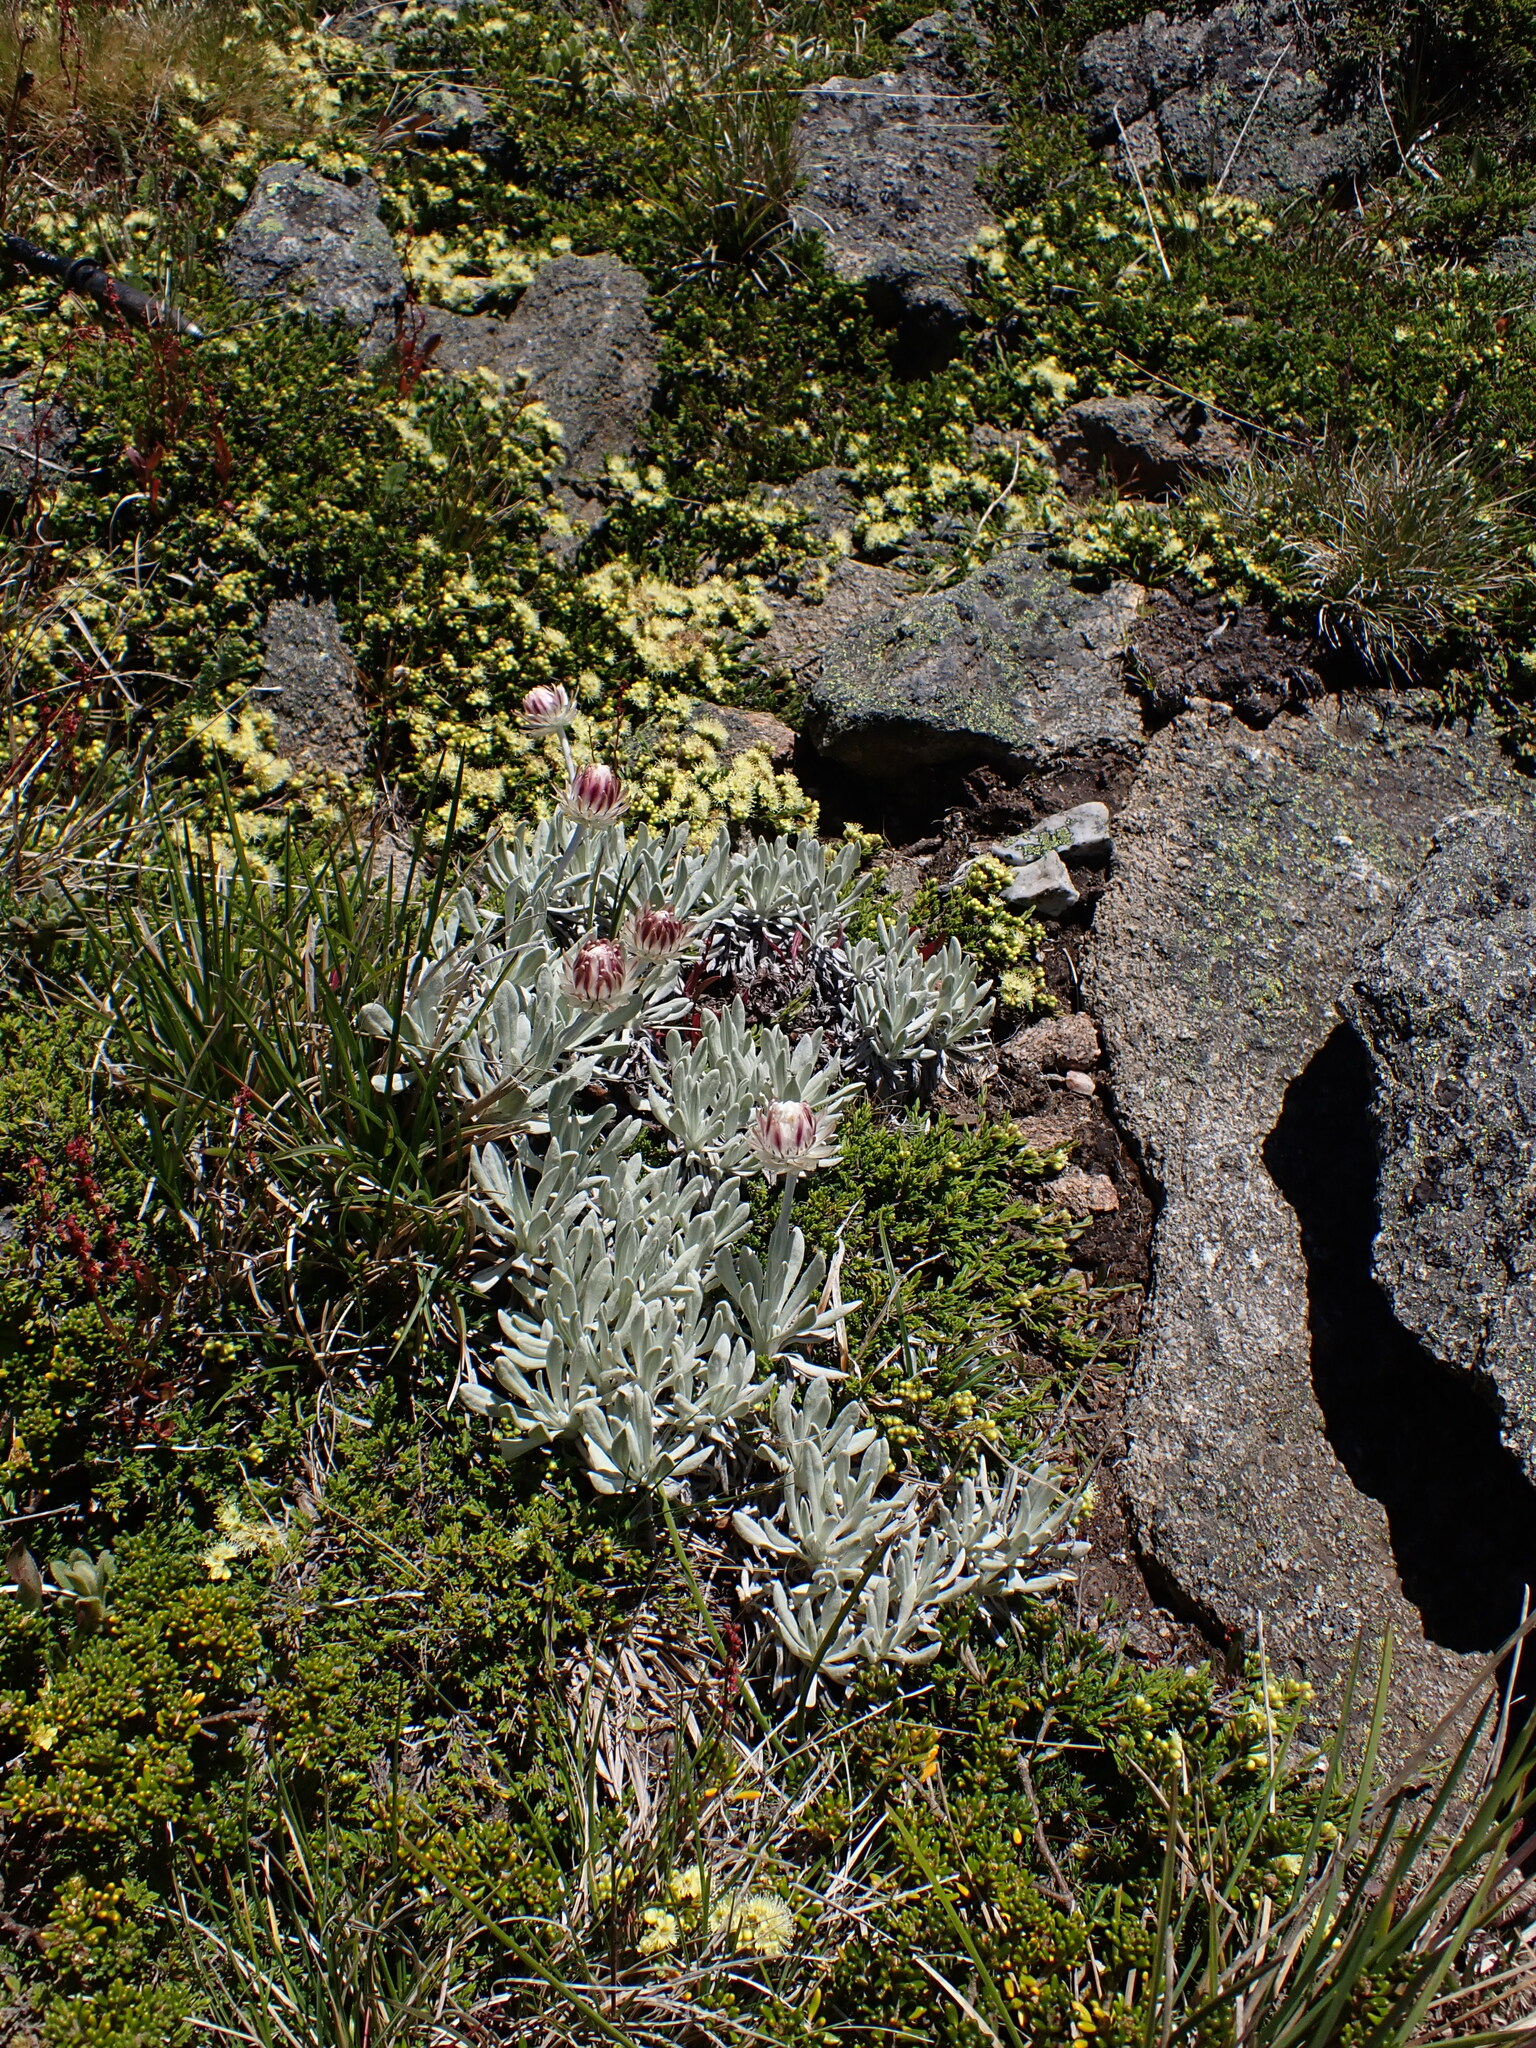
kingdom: Plantae
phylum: Tracheophyta
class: Magnoliopsida
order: Asterales
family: Asteraceae
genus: Leucochrysum
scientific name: Leucochrysum alpinum
